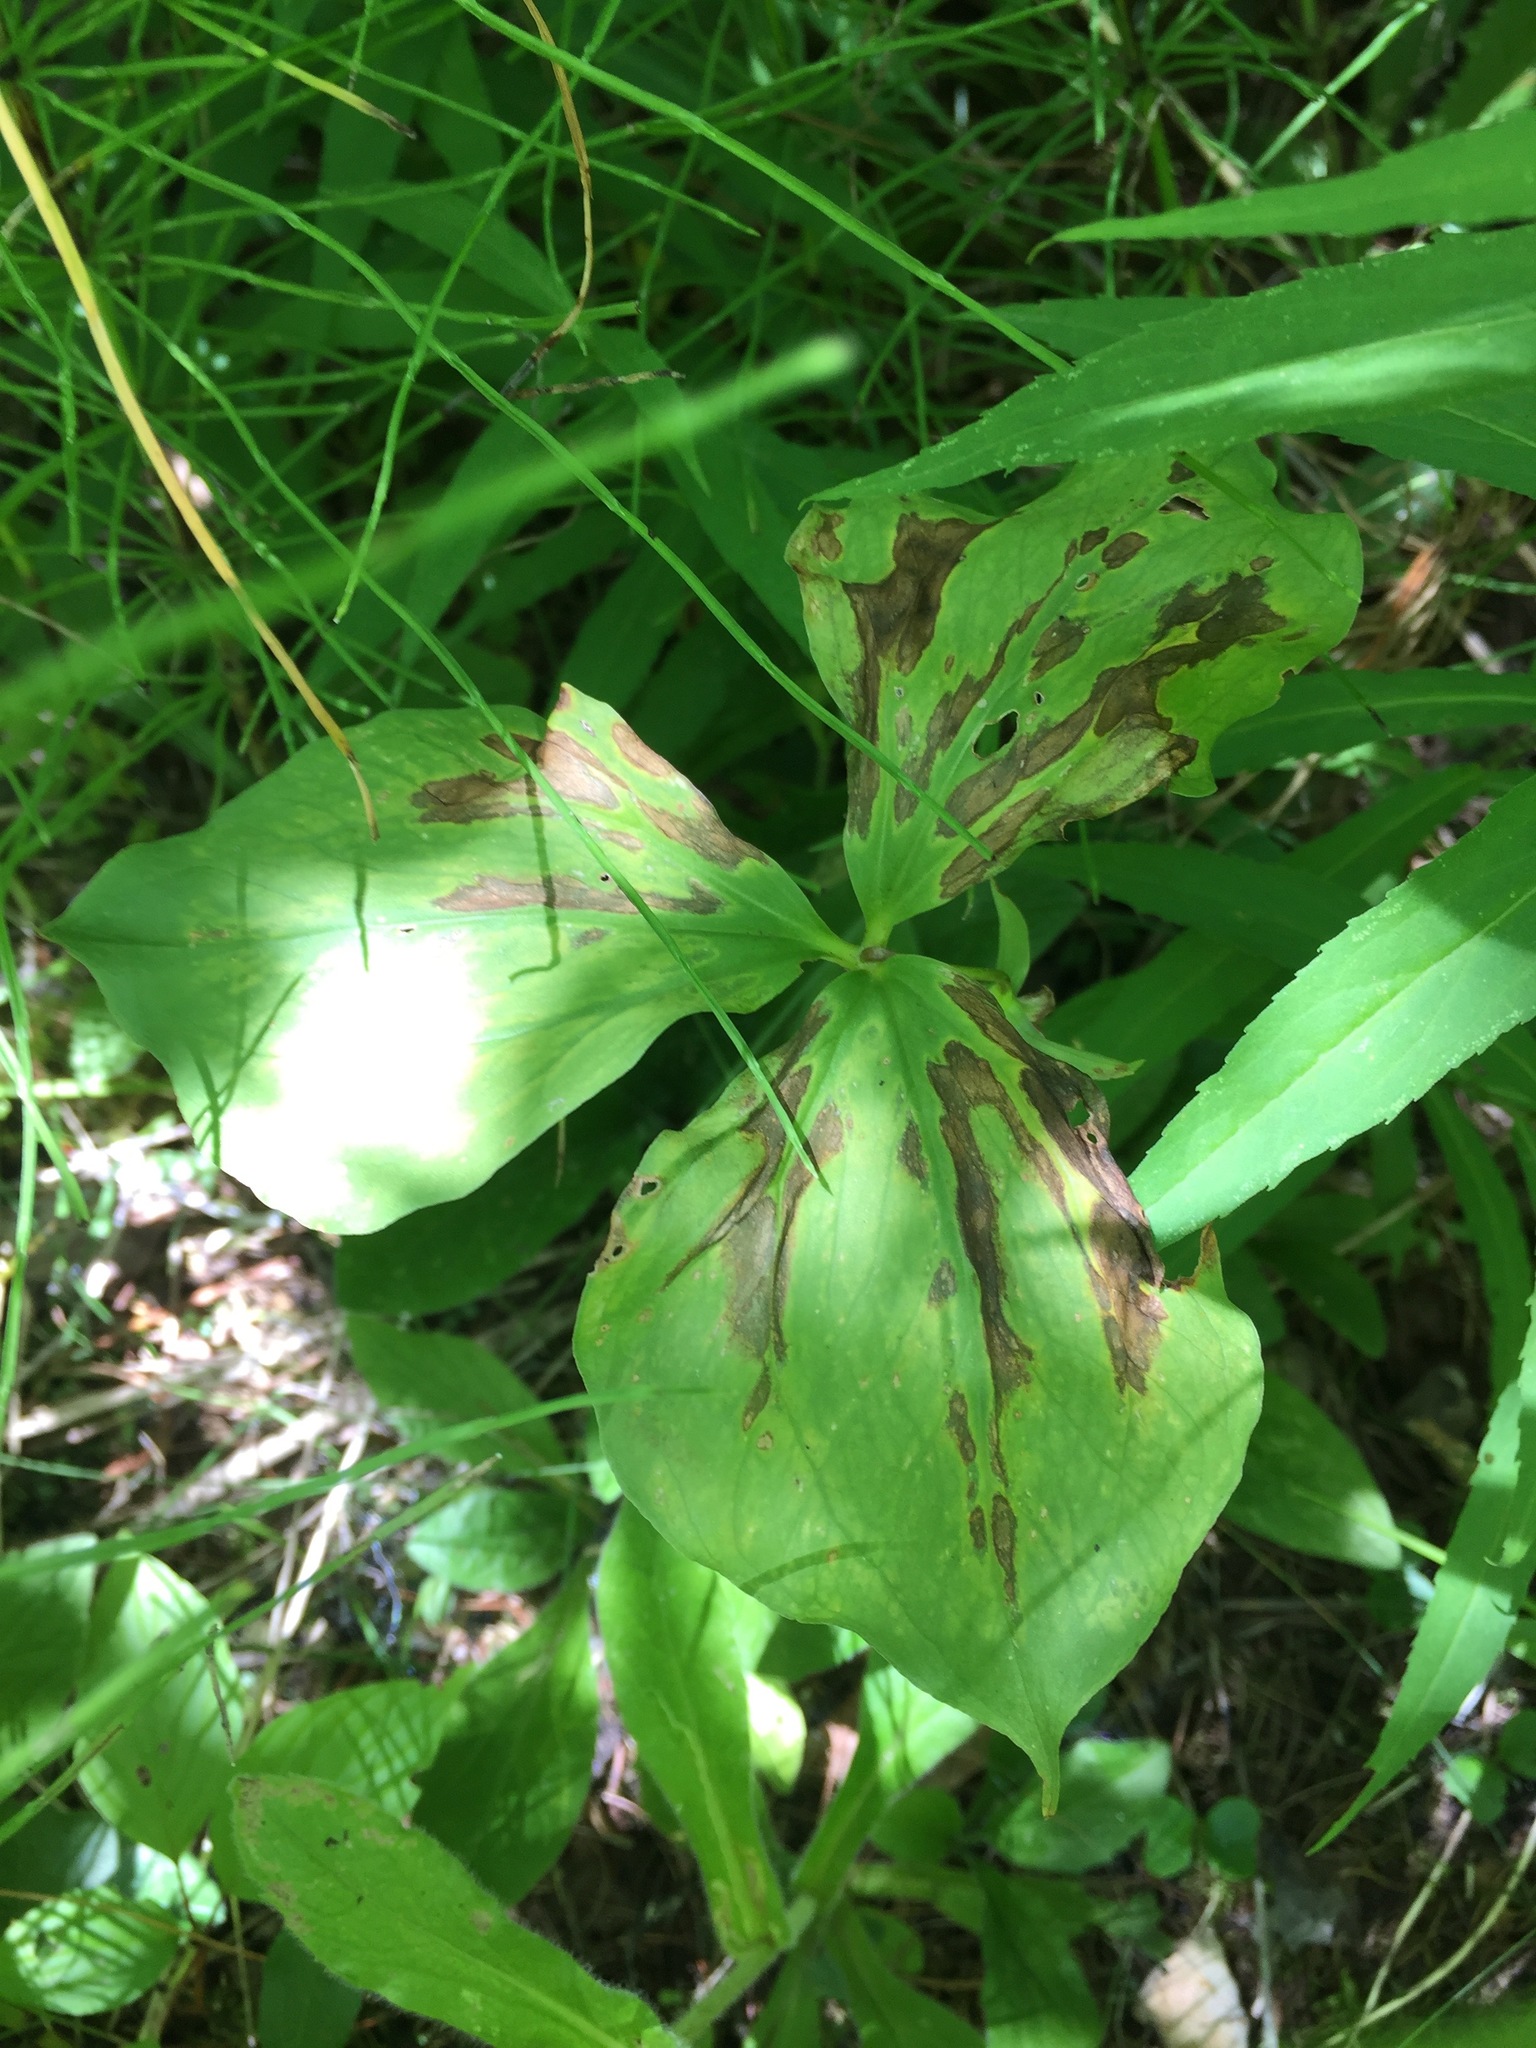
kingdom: Plantae
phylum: Tracheophyta
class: Liliopsida
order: Liliales
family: Melanthiaceae
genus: Trillium
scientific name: Trillium cernuum
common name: Nodding trillium
